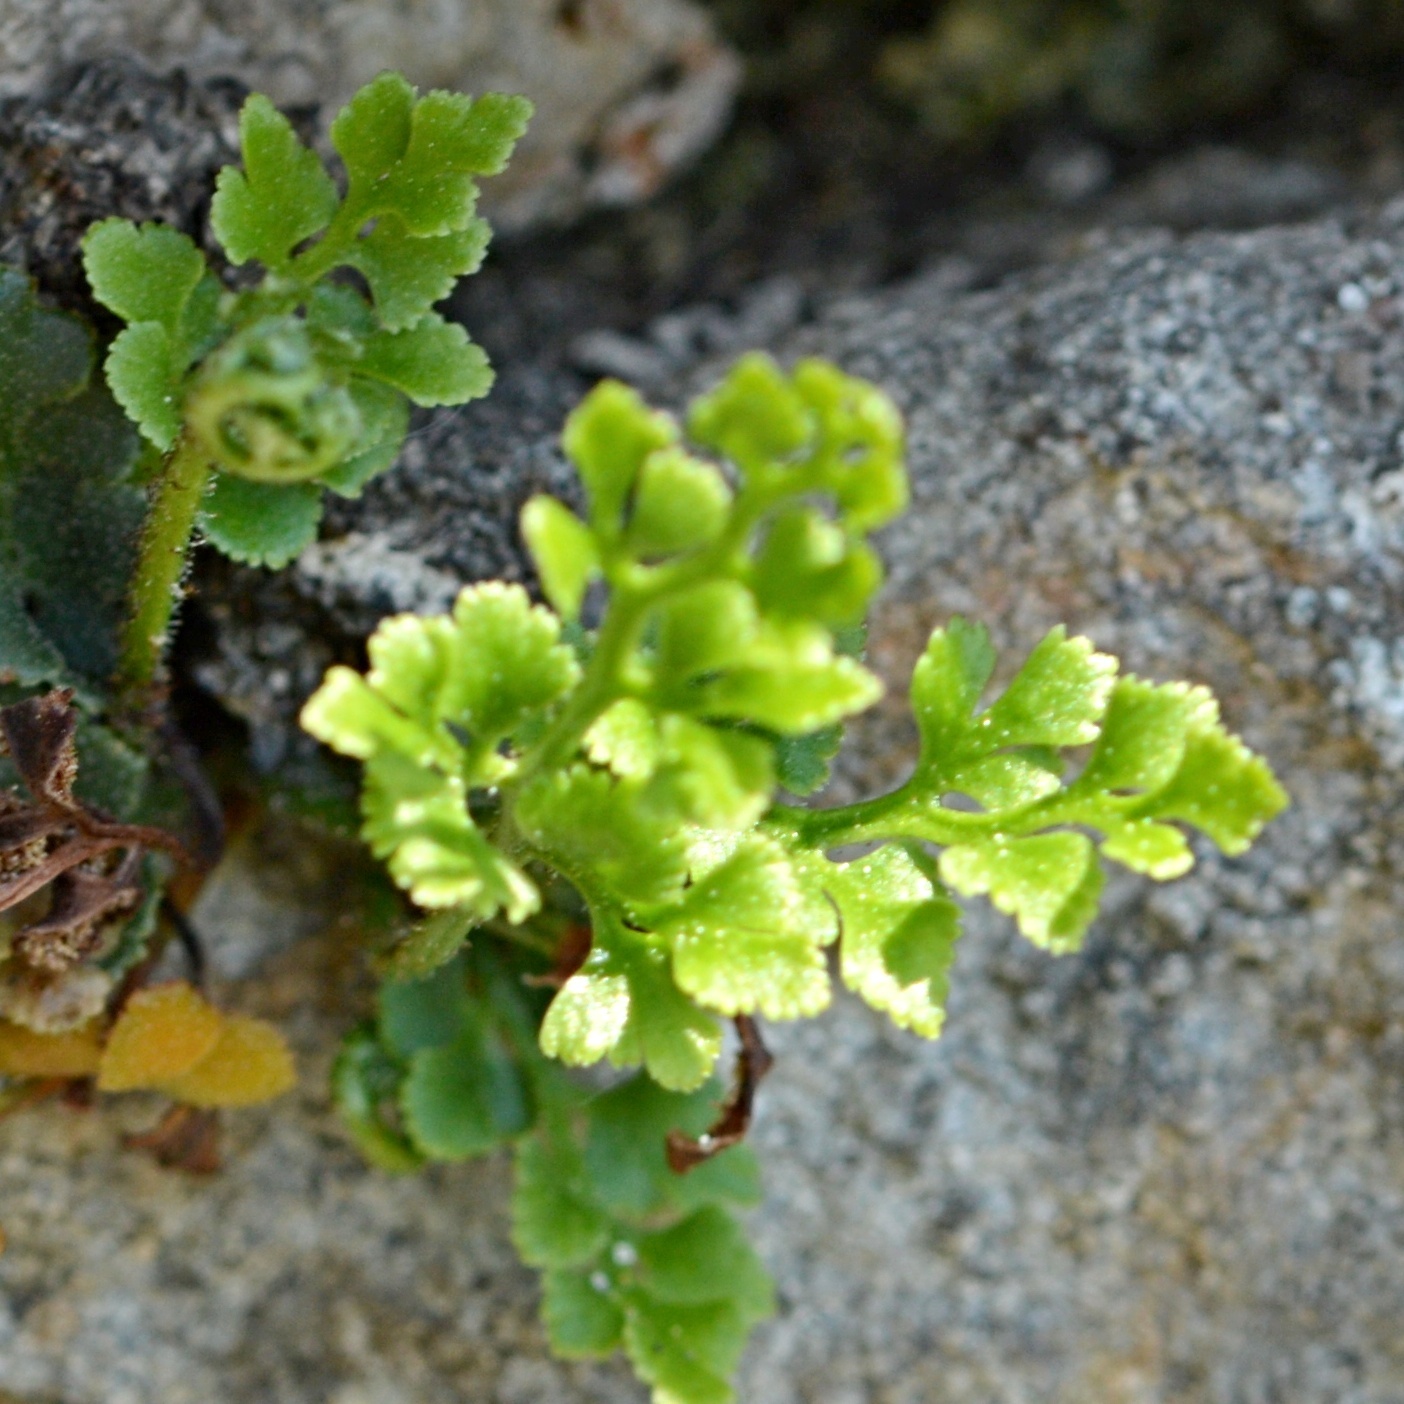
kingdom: Plantae
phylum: Tracheophyta
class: Polypodiopsida
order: Polypodiales
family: Aspleniaceae
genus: Asplenium
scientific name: Asplenium ruta-muraria
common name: Wall-rue
